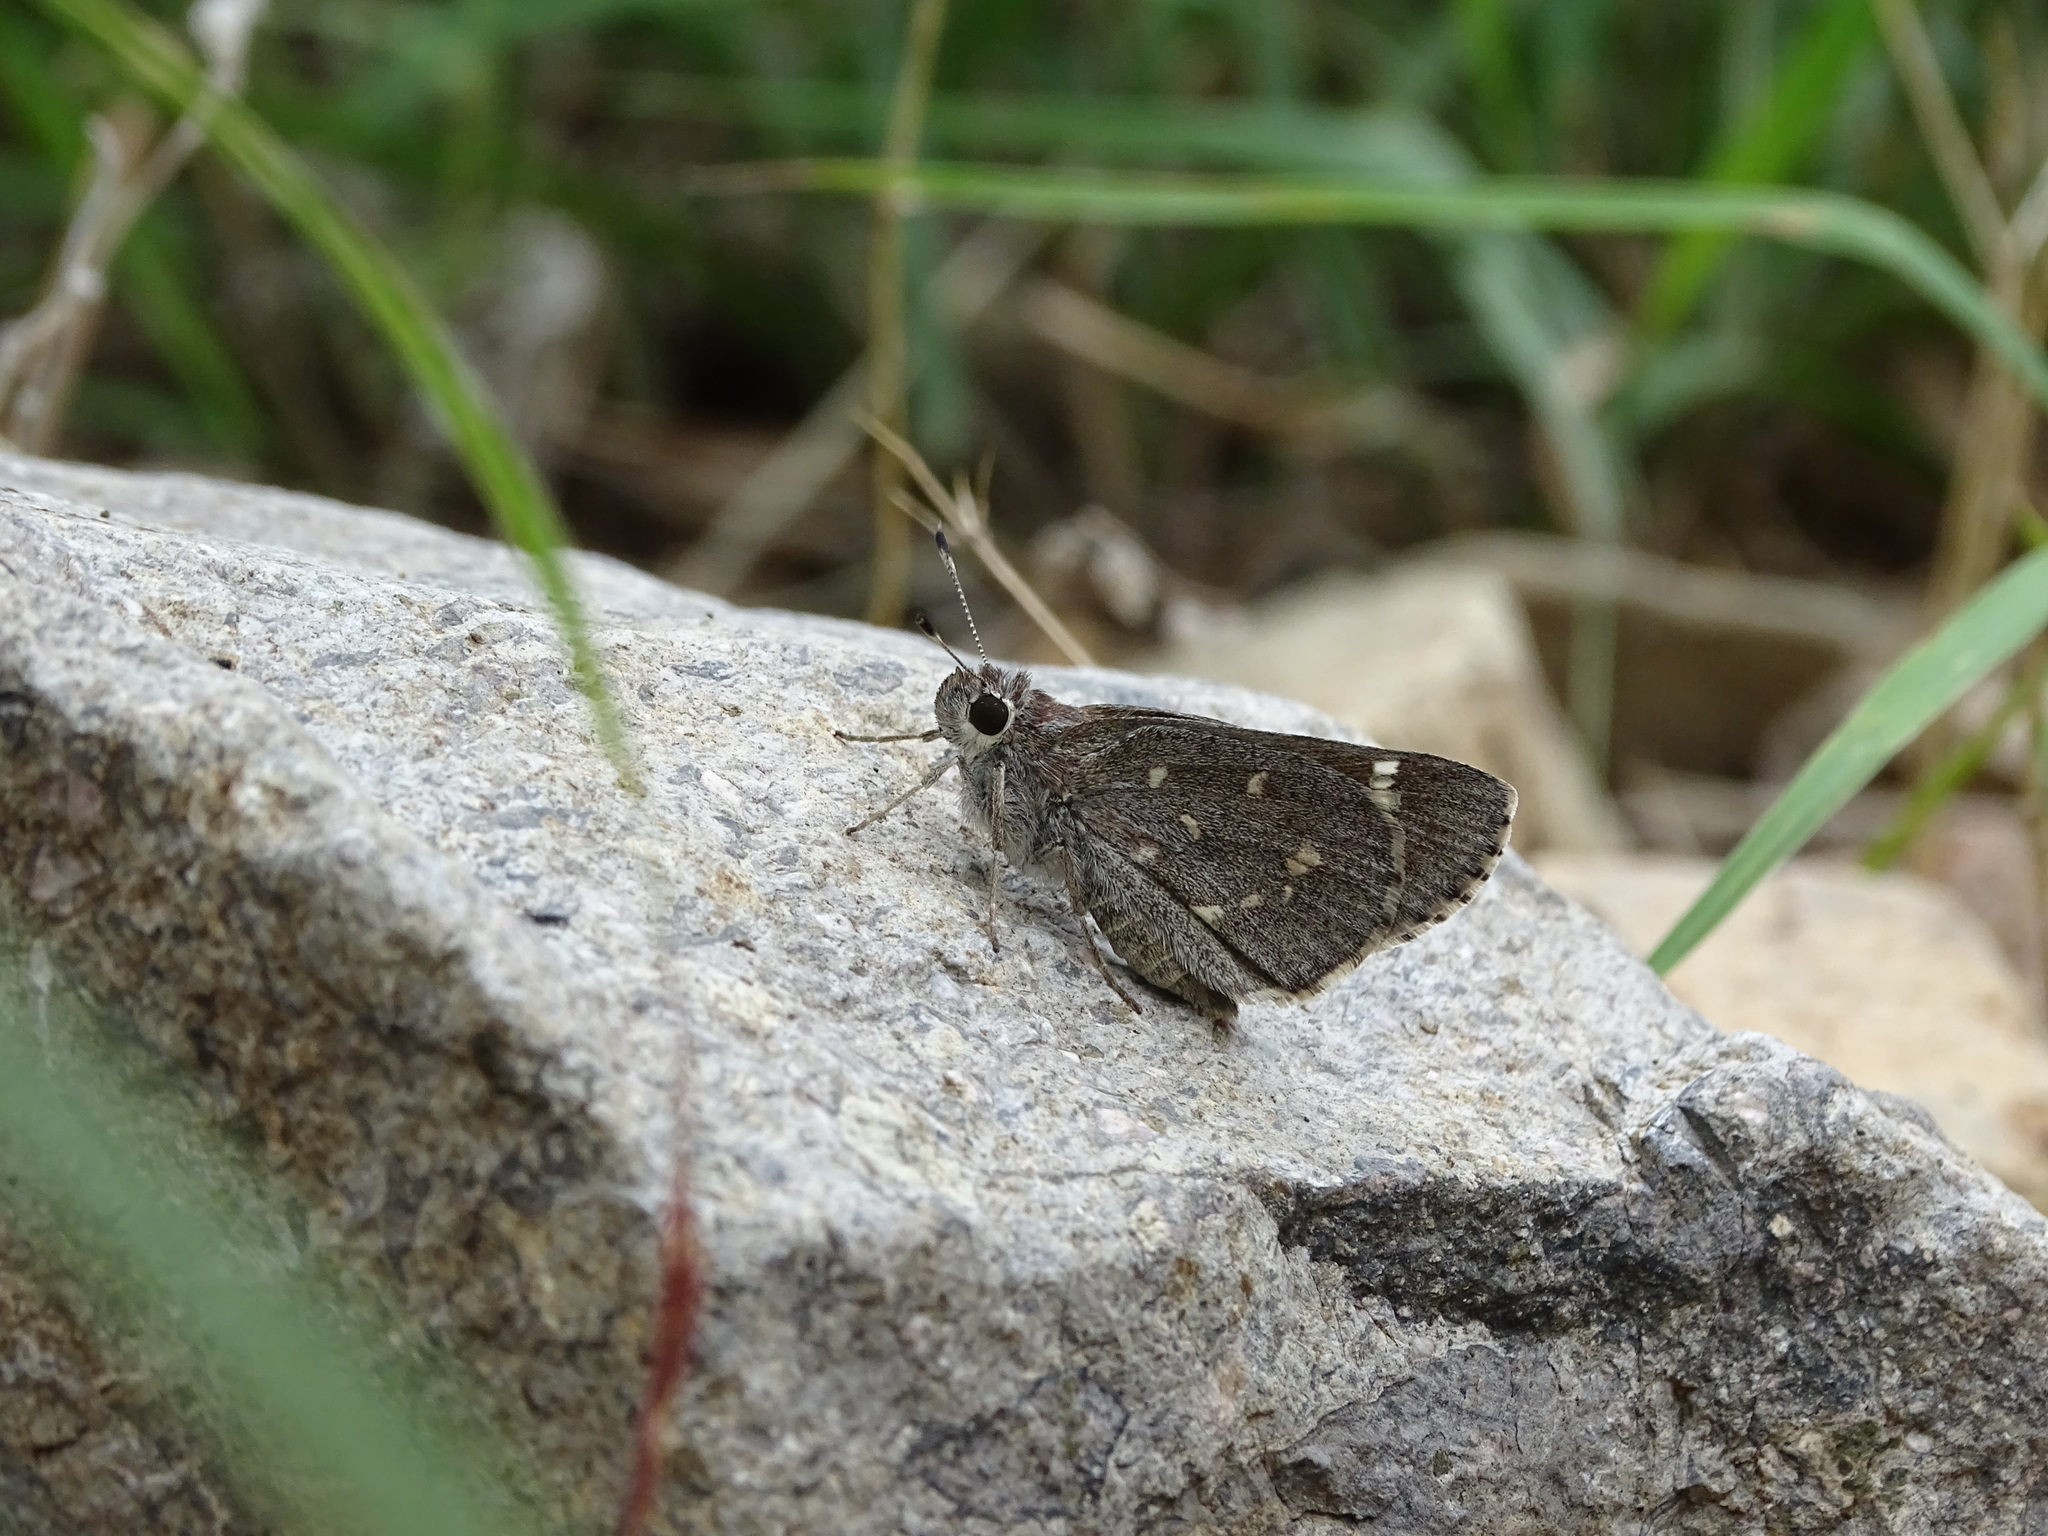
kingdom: Animalia
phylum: Arthropoda
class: Insecta
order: Lepidoptera
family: Hesperiidae
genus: Atrytonopsis
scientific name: Atrytonopsis ovinia
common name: Ovinia skipper
